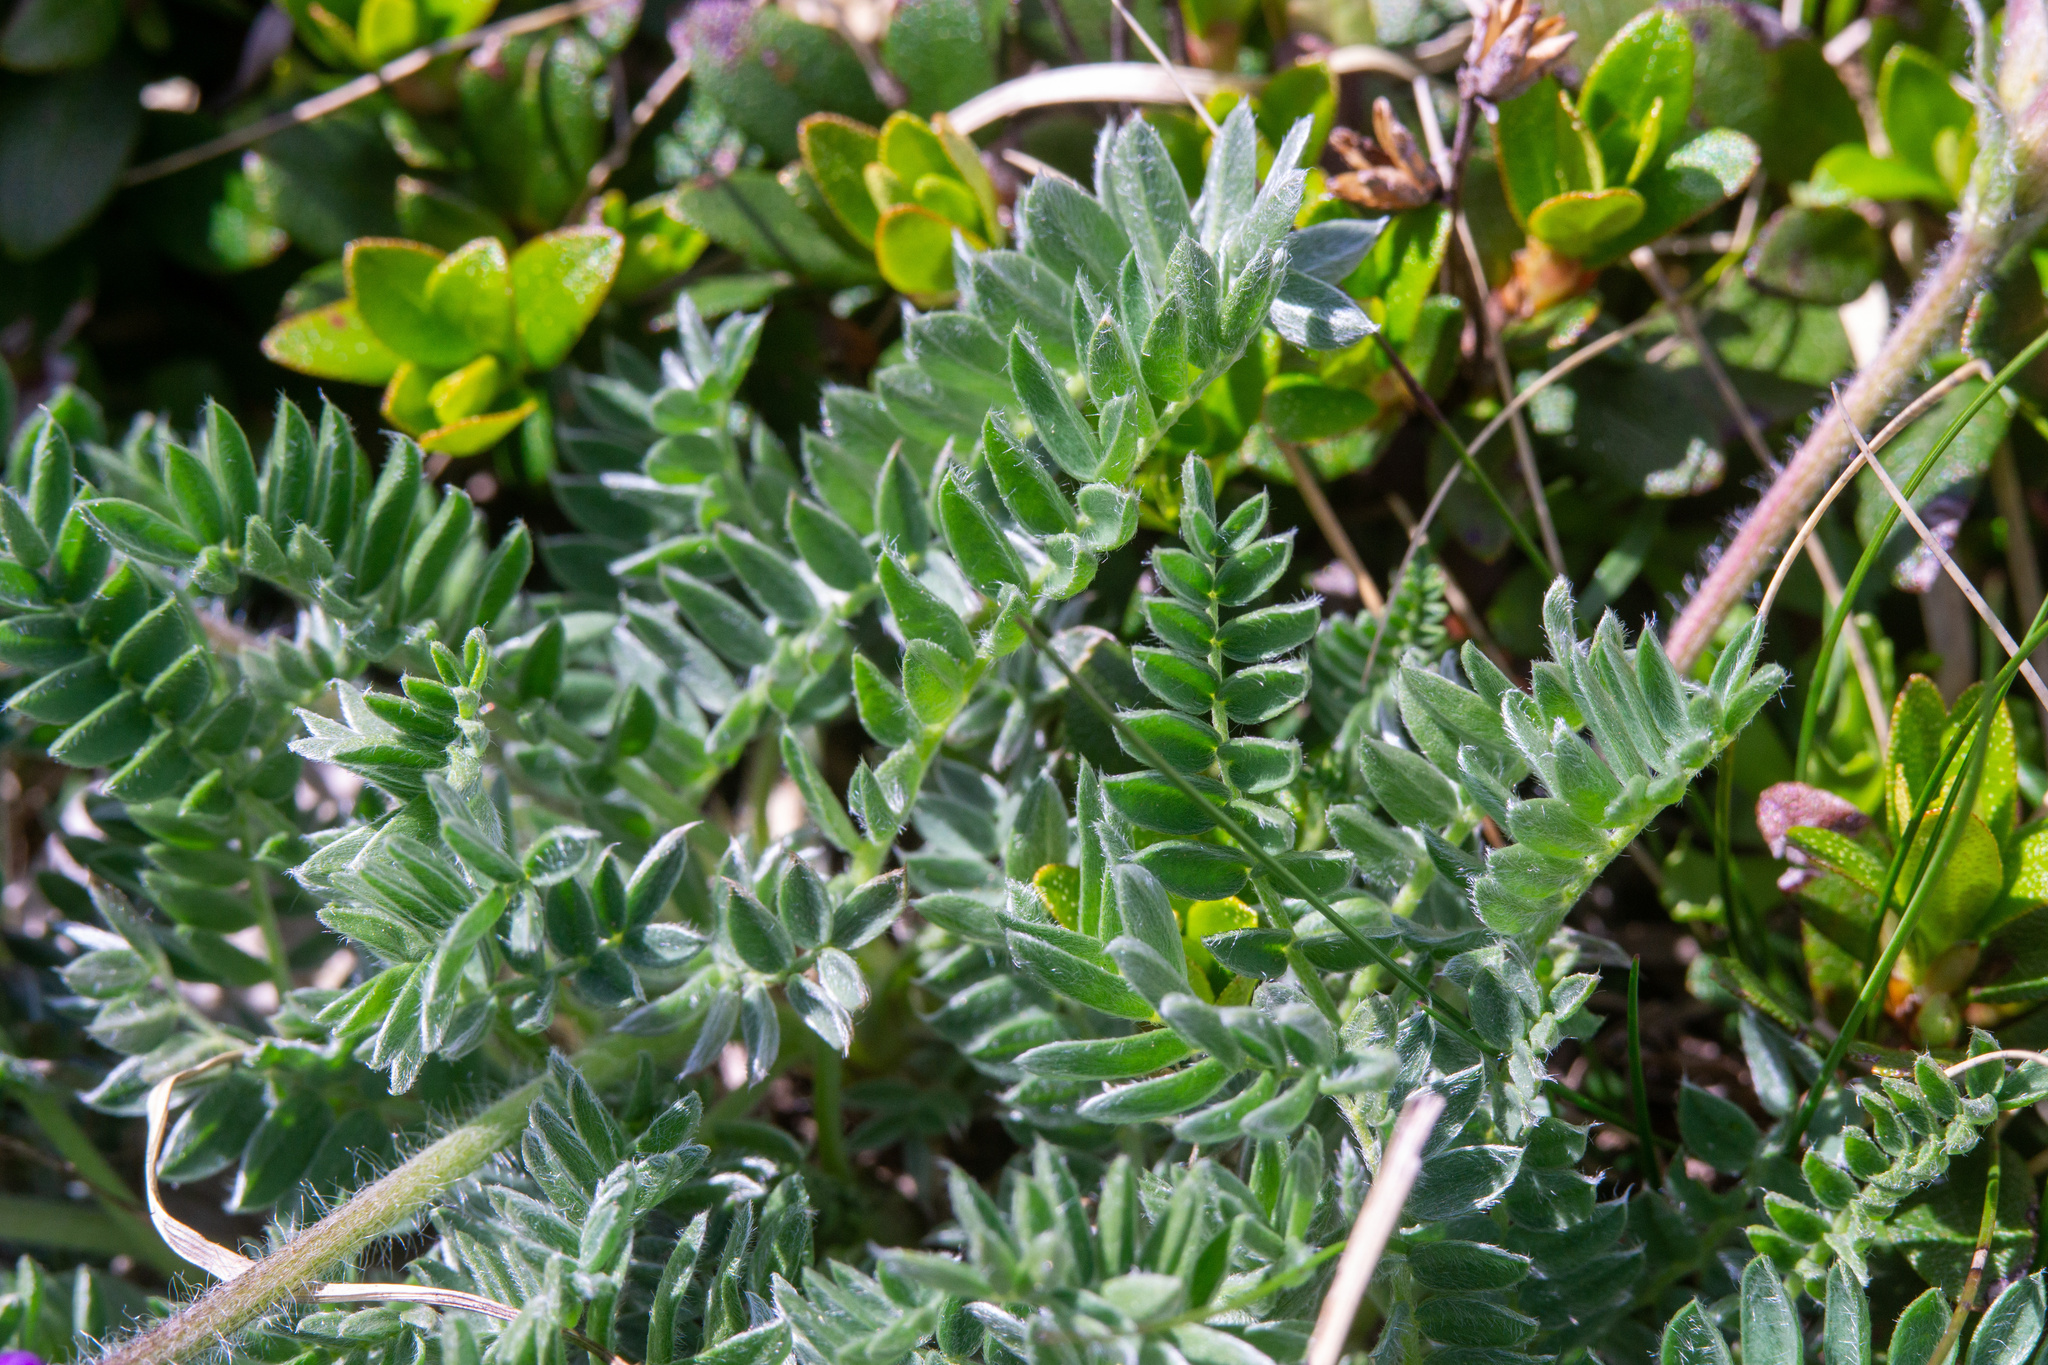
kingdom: Plantae
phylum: Tracheophyta
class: Magnoliopsida
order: Fabales
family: Fabaceae
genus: Oxytropis
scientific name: Oxytropis halleri
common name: Purple oxytropis
